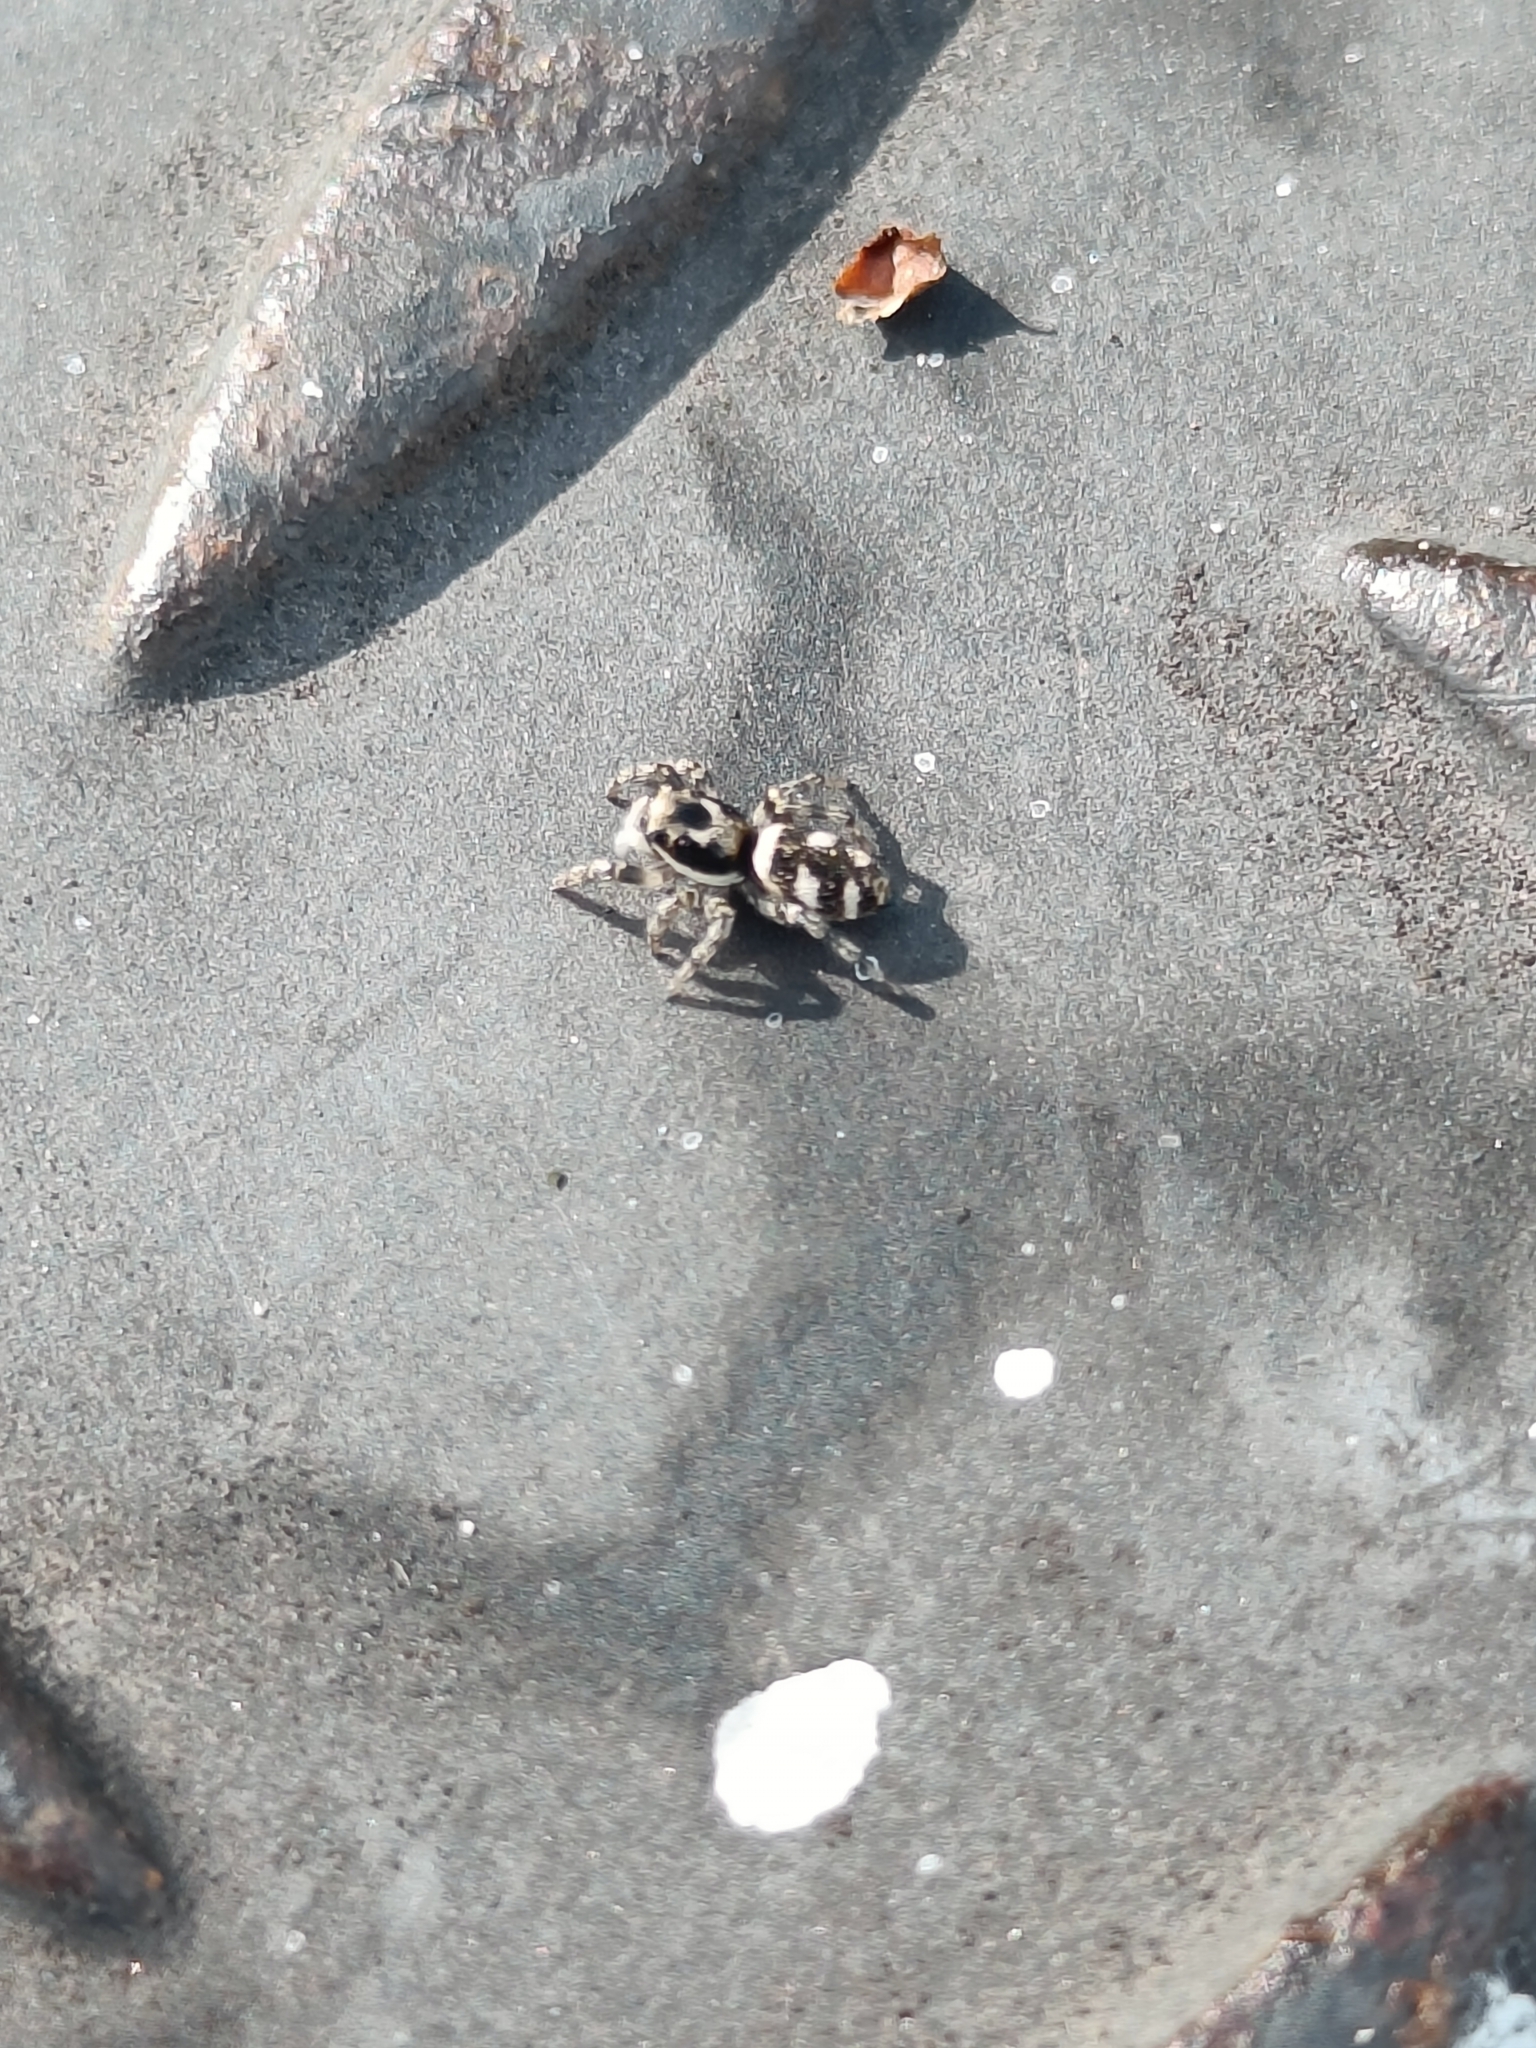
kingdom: Animalia
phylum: Arthropoda
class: Arachnida
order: Araneae
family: Salticidae
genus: Salticus
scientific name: Salticus scenicus
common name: Zebra jumper
